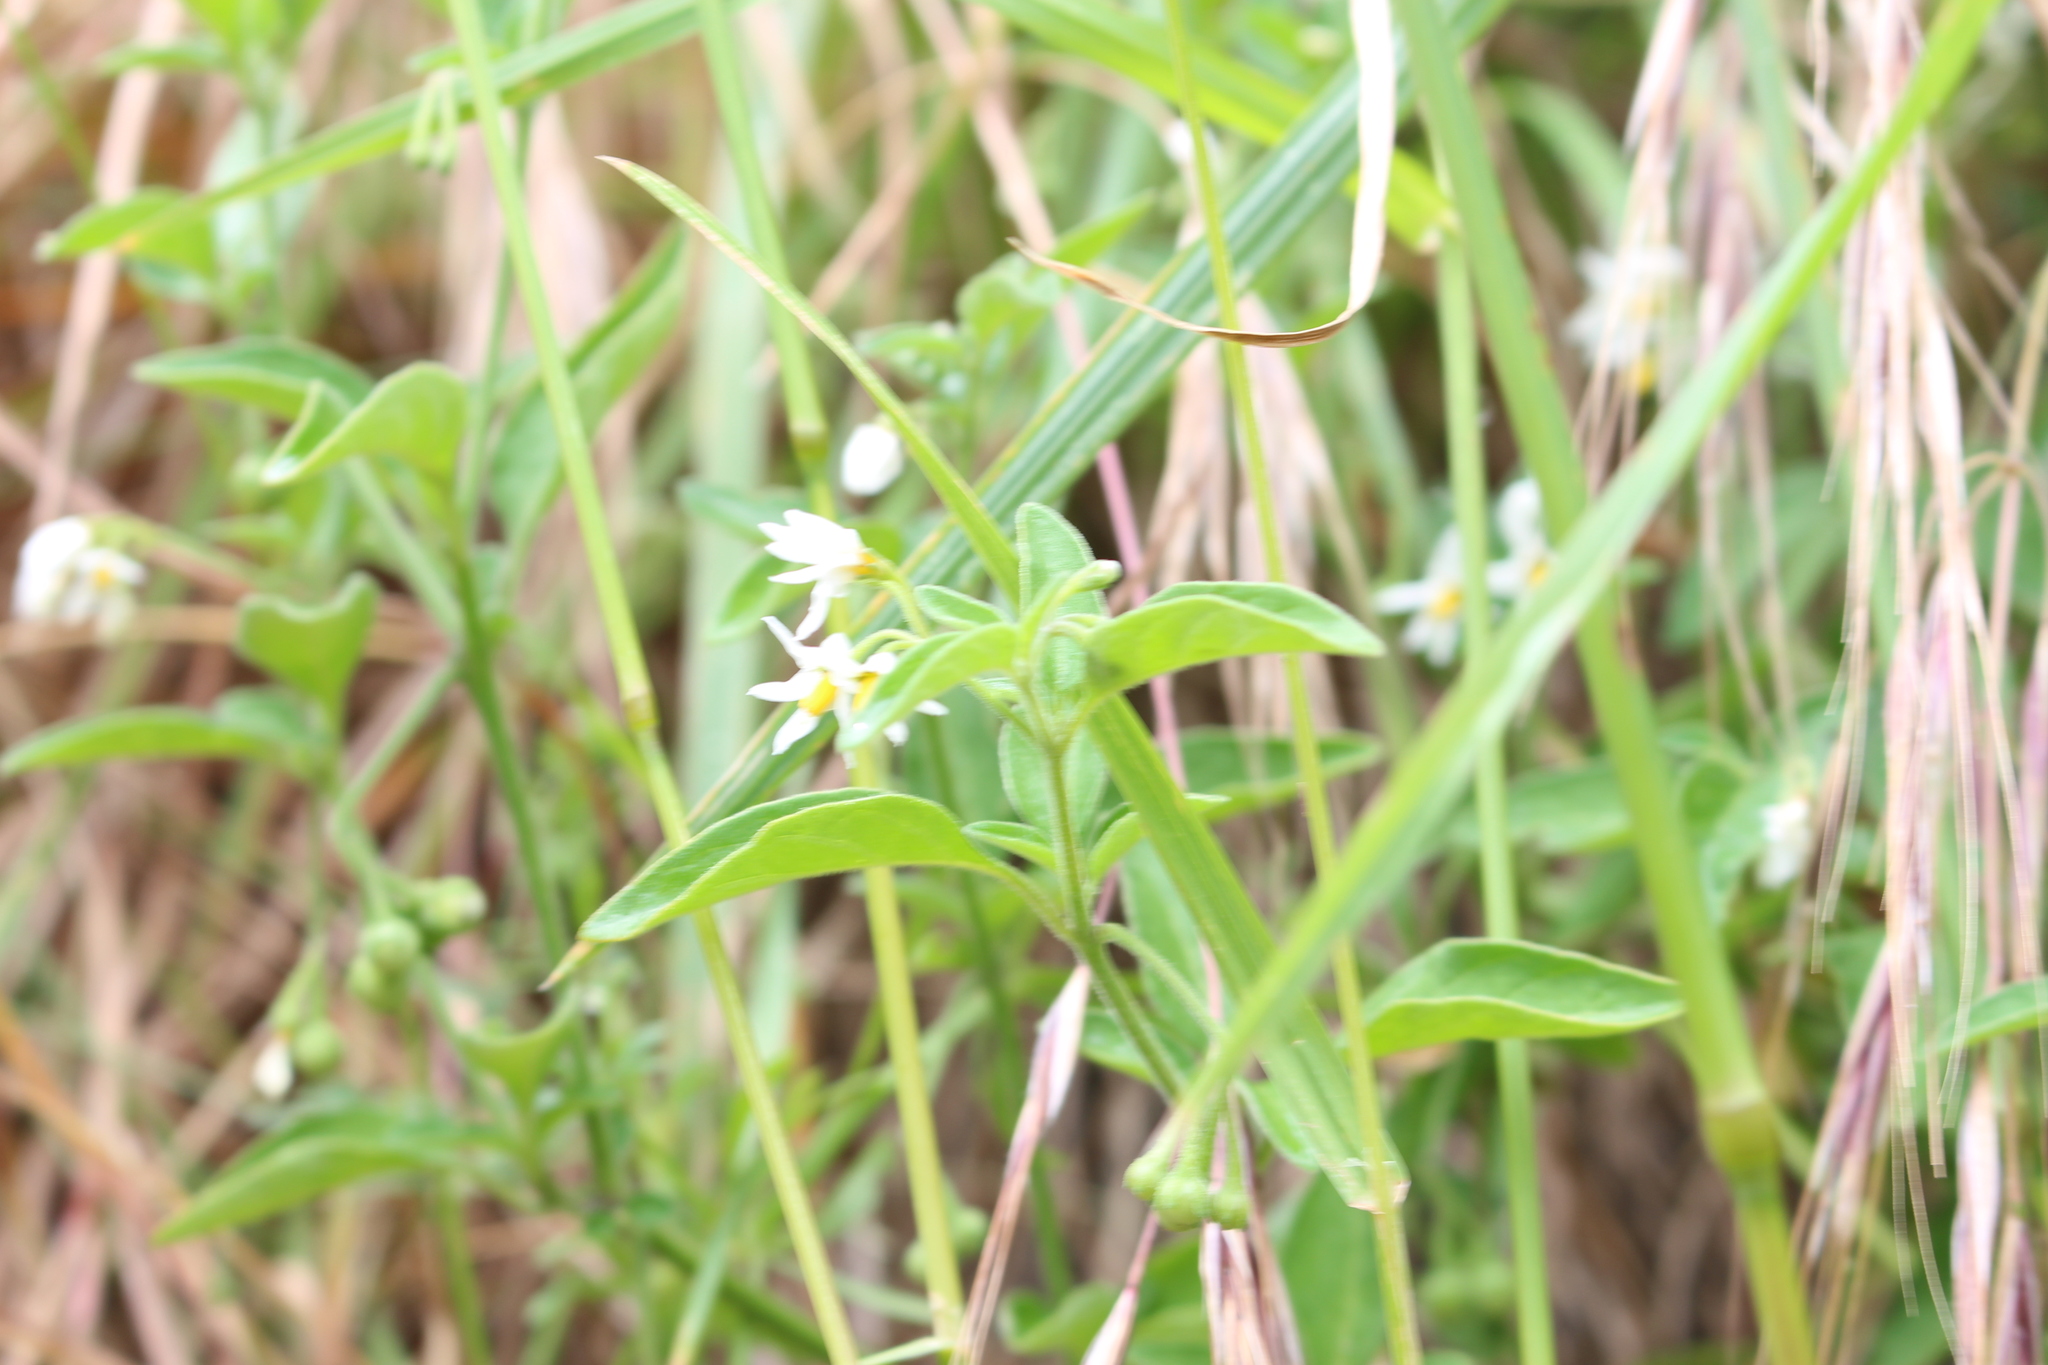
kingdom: Plantae
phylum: Tracheophyta
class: Magnoliopsida
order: Solanales
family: Solanaceae
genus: Solanum
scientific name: Solanum chenopodioides
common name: Tall nightshade
